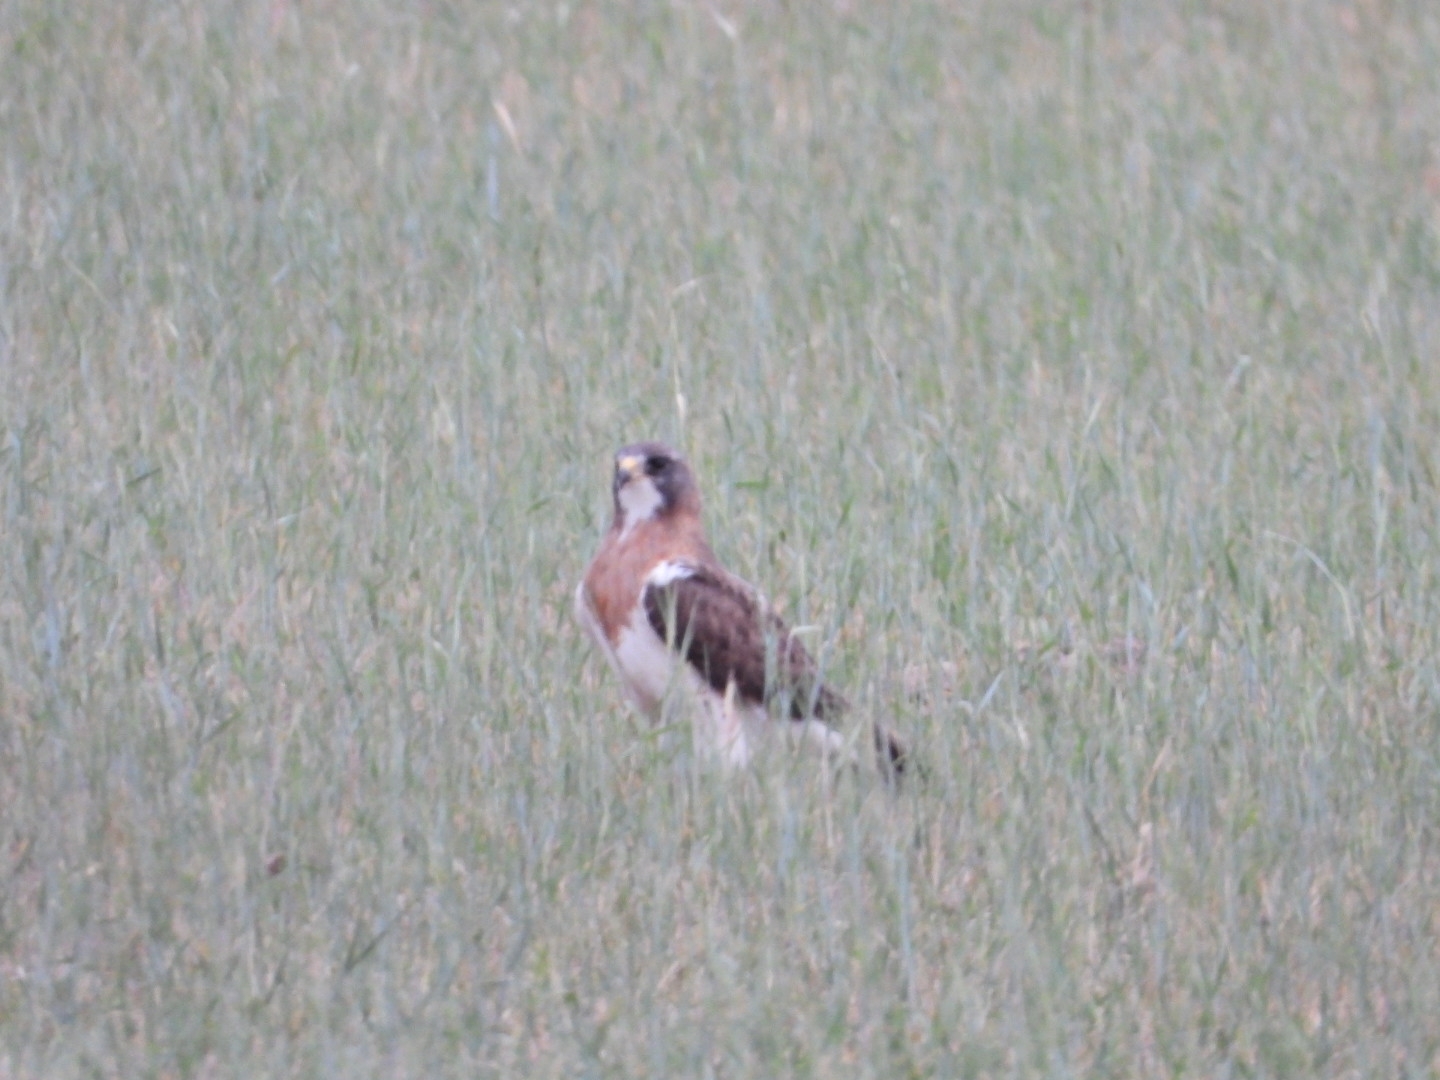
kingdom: Animalia
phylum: Chordata
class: Aves
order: Accipitriformes
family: Accipitridae
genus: Buteo
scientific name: Buteo swainsoni
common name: Swainson's hawk
